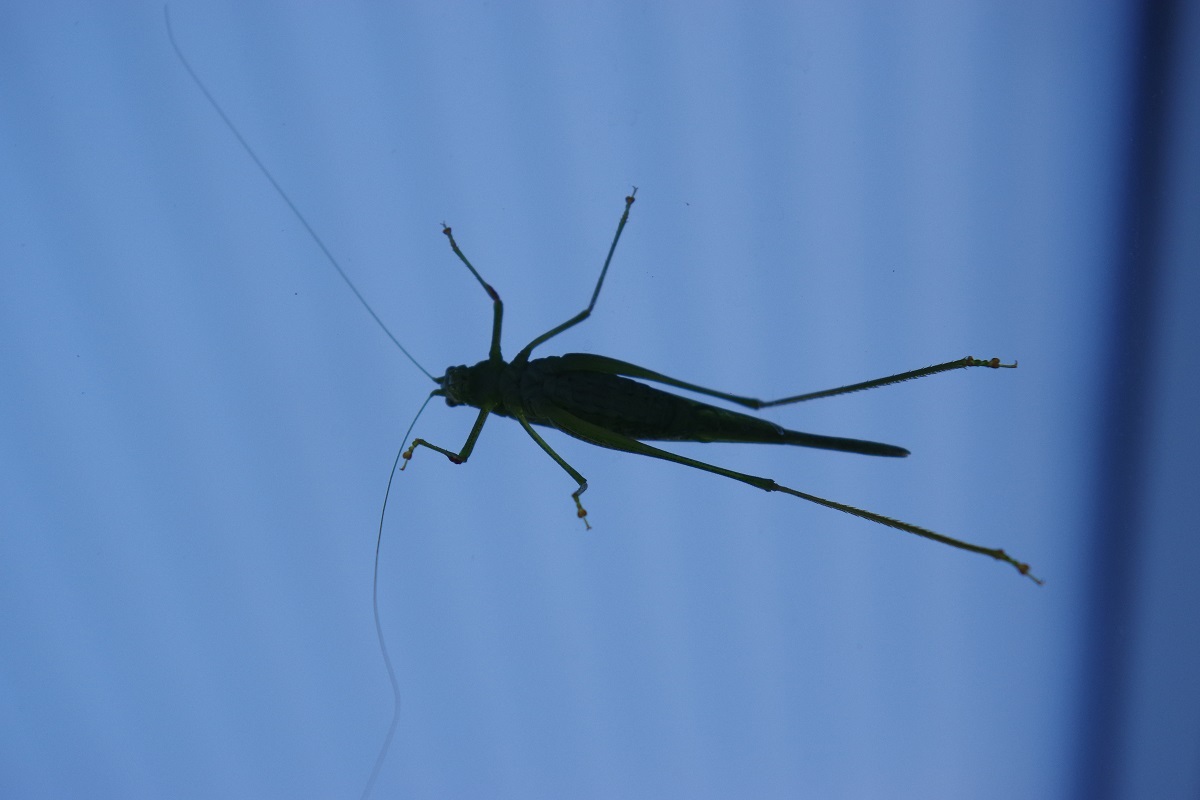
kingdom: Animalia
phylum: Arthropoda
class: Insecta
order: Orthoptera
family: Tettigoniidae
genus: Phaneroptera
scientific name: Phaneroptera nana
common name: Southern sickle bush-cricket
